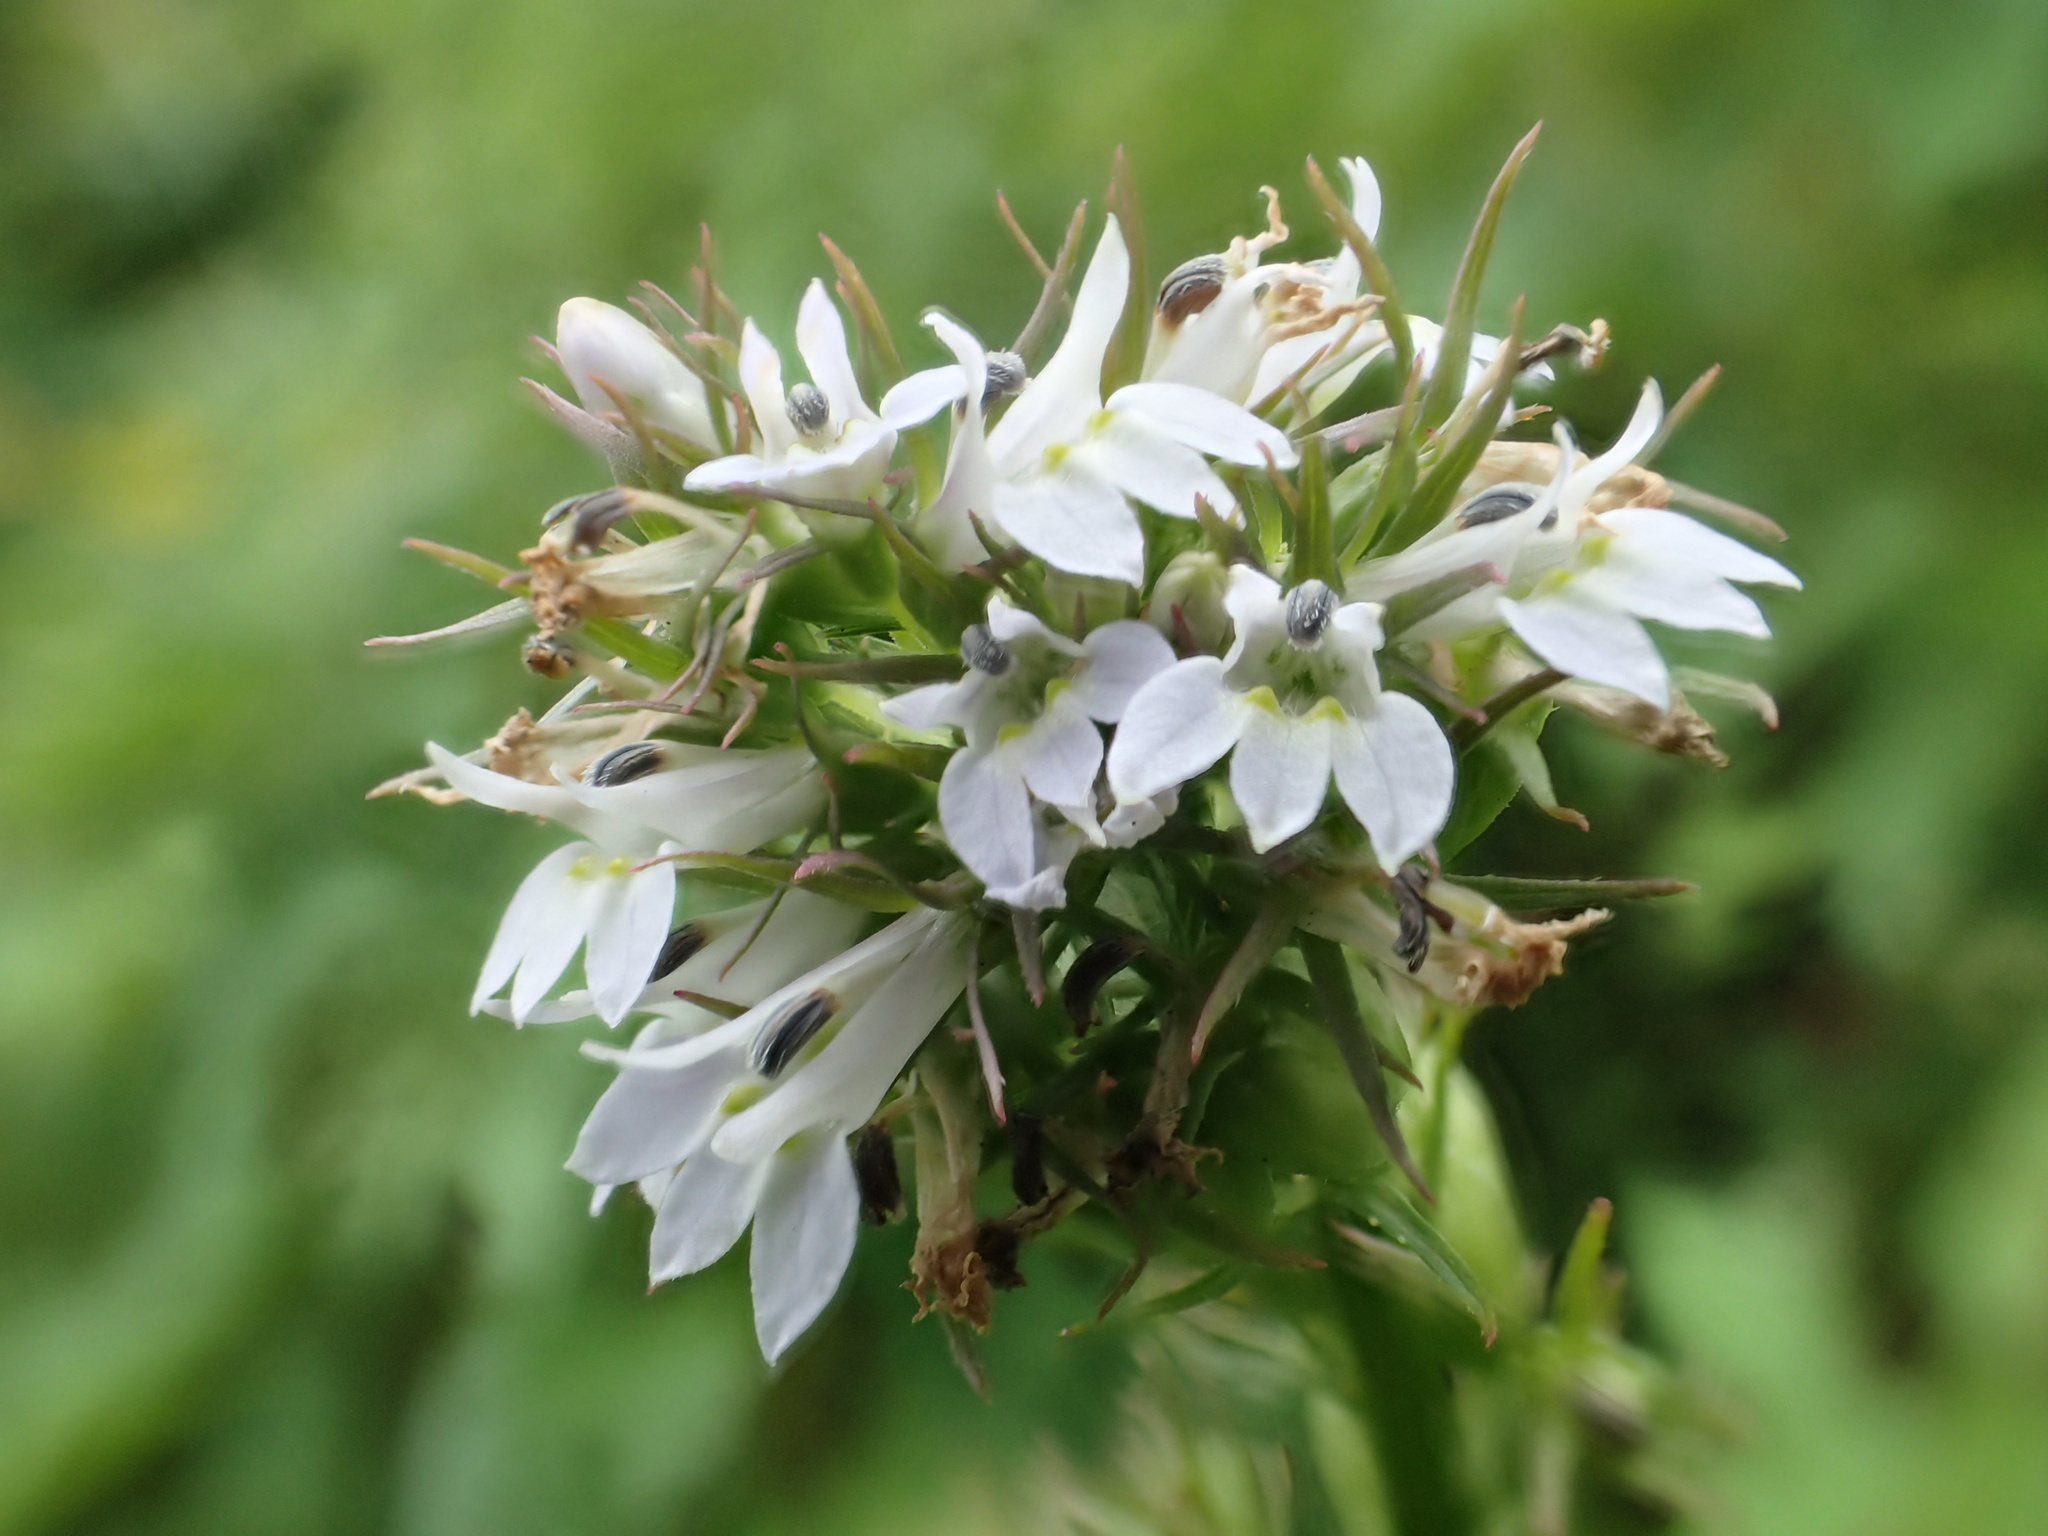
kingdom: Plantae
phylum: Tracheophyta
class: Magnoliopsida
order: Asterales
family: Campanulaceae
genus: Lobelia
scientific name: Lobelia inflata
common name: Indian tobacco
